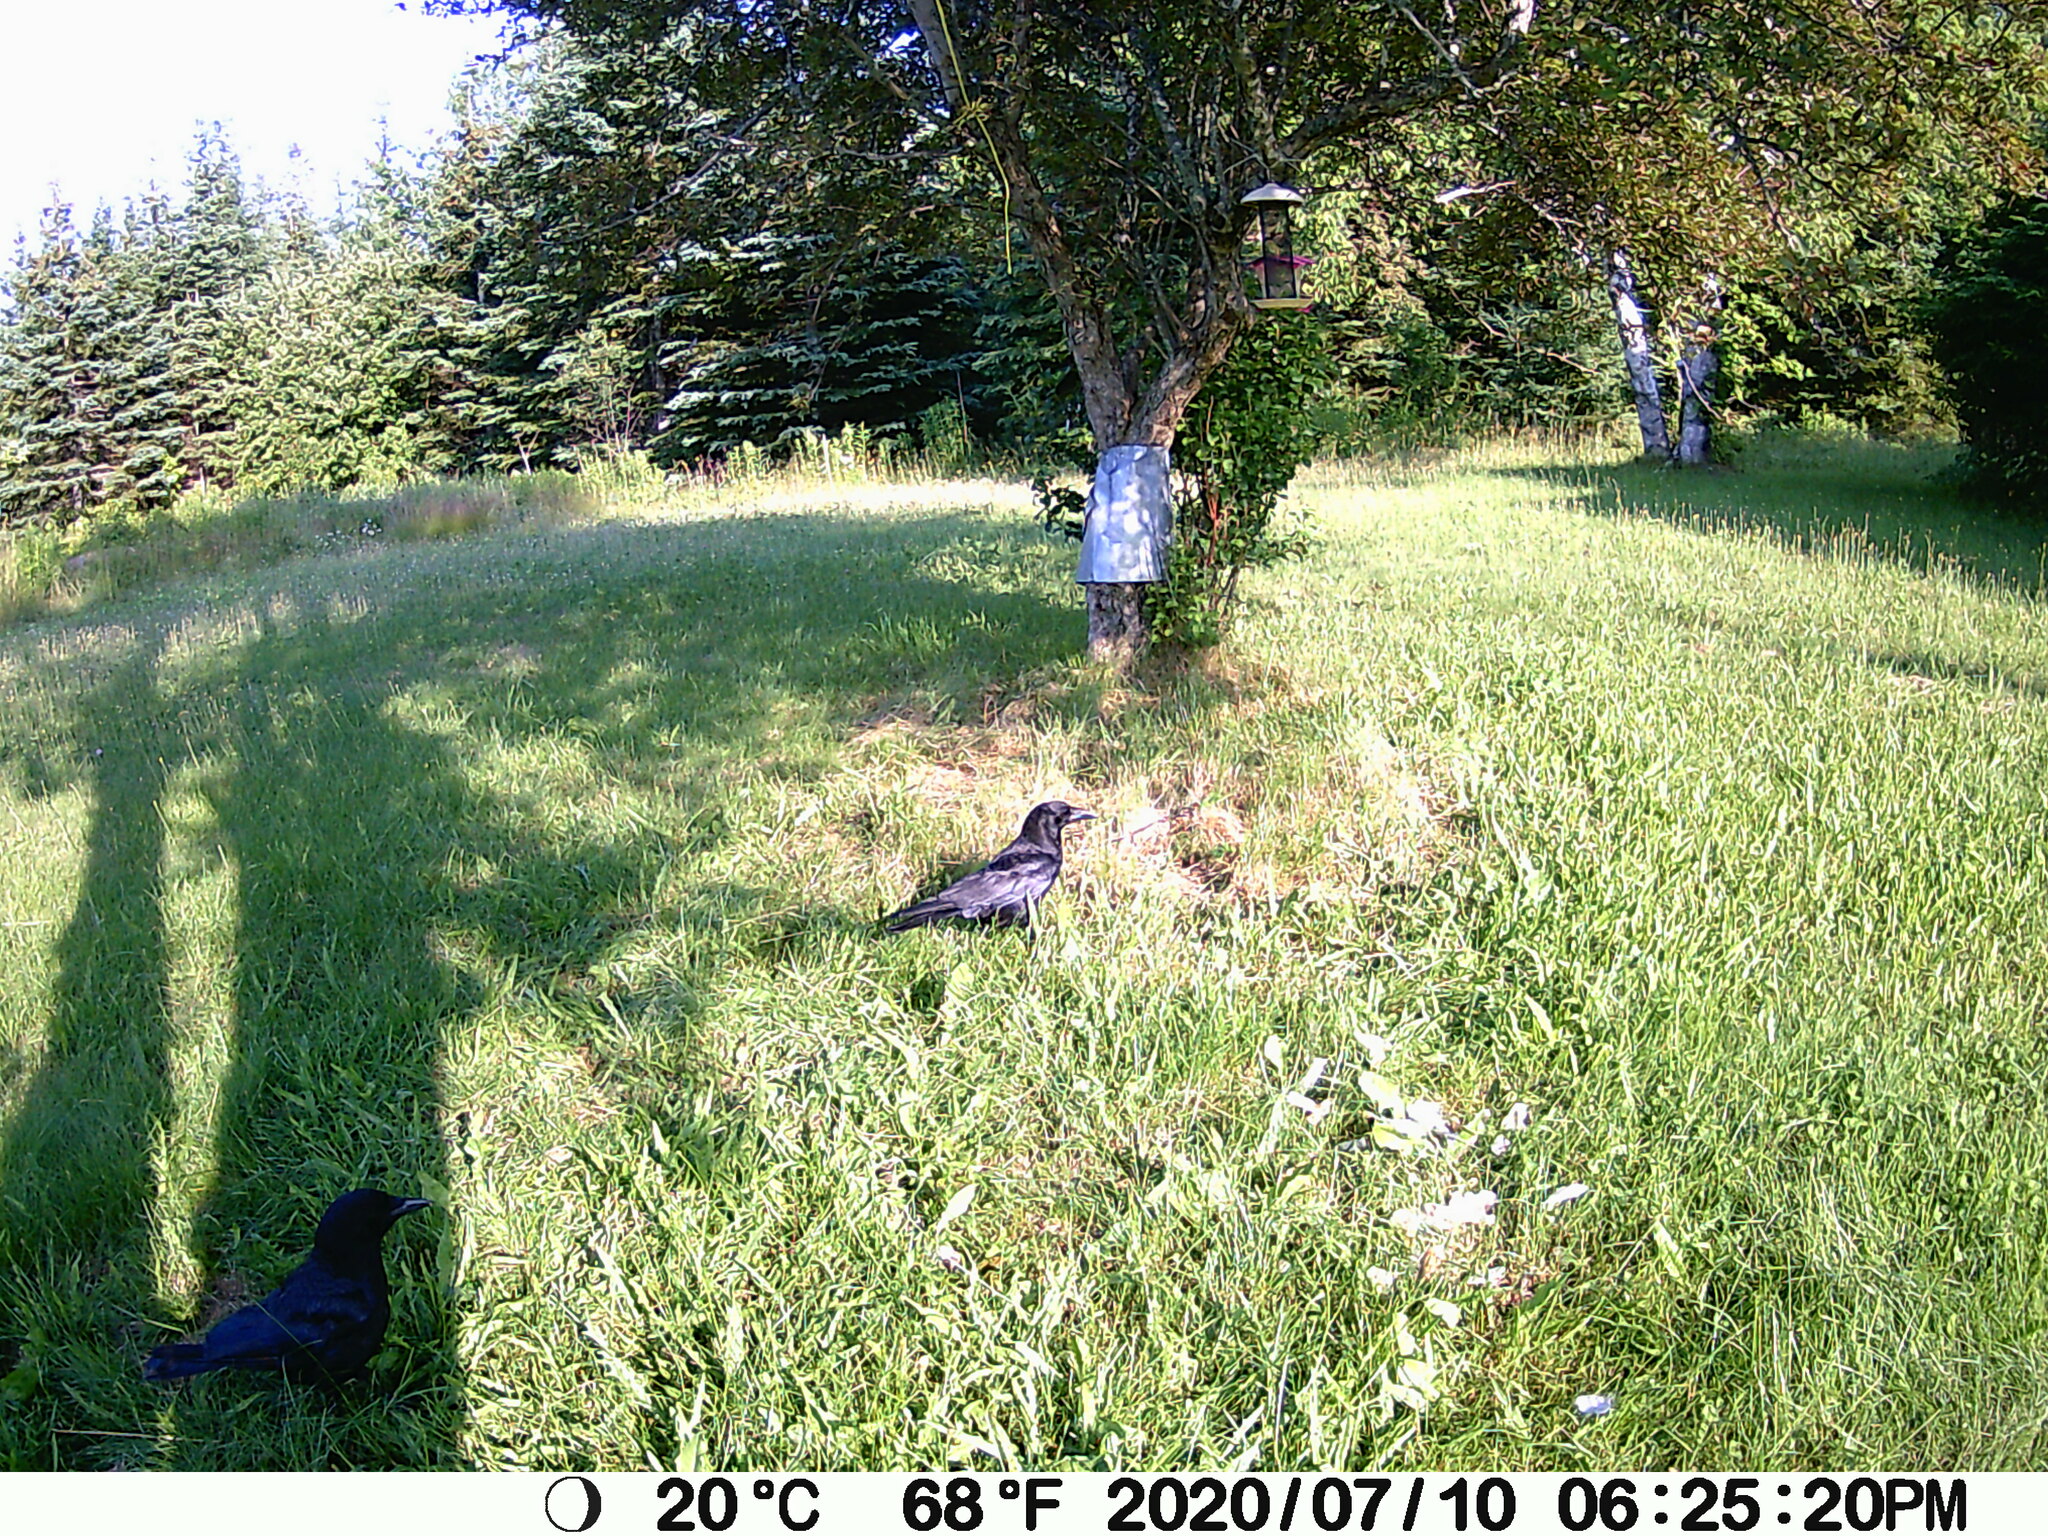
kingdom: Animalia
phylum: Chordata
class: Aves
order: Passeriformes
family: Corvidae
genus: Corvus
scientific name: Corvus brachyrhynchos
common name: American crow
